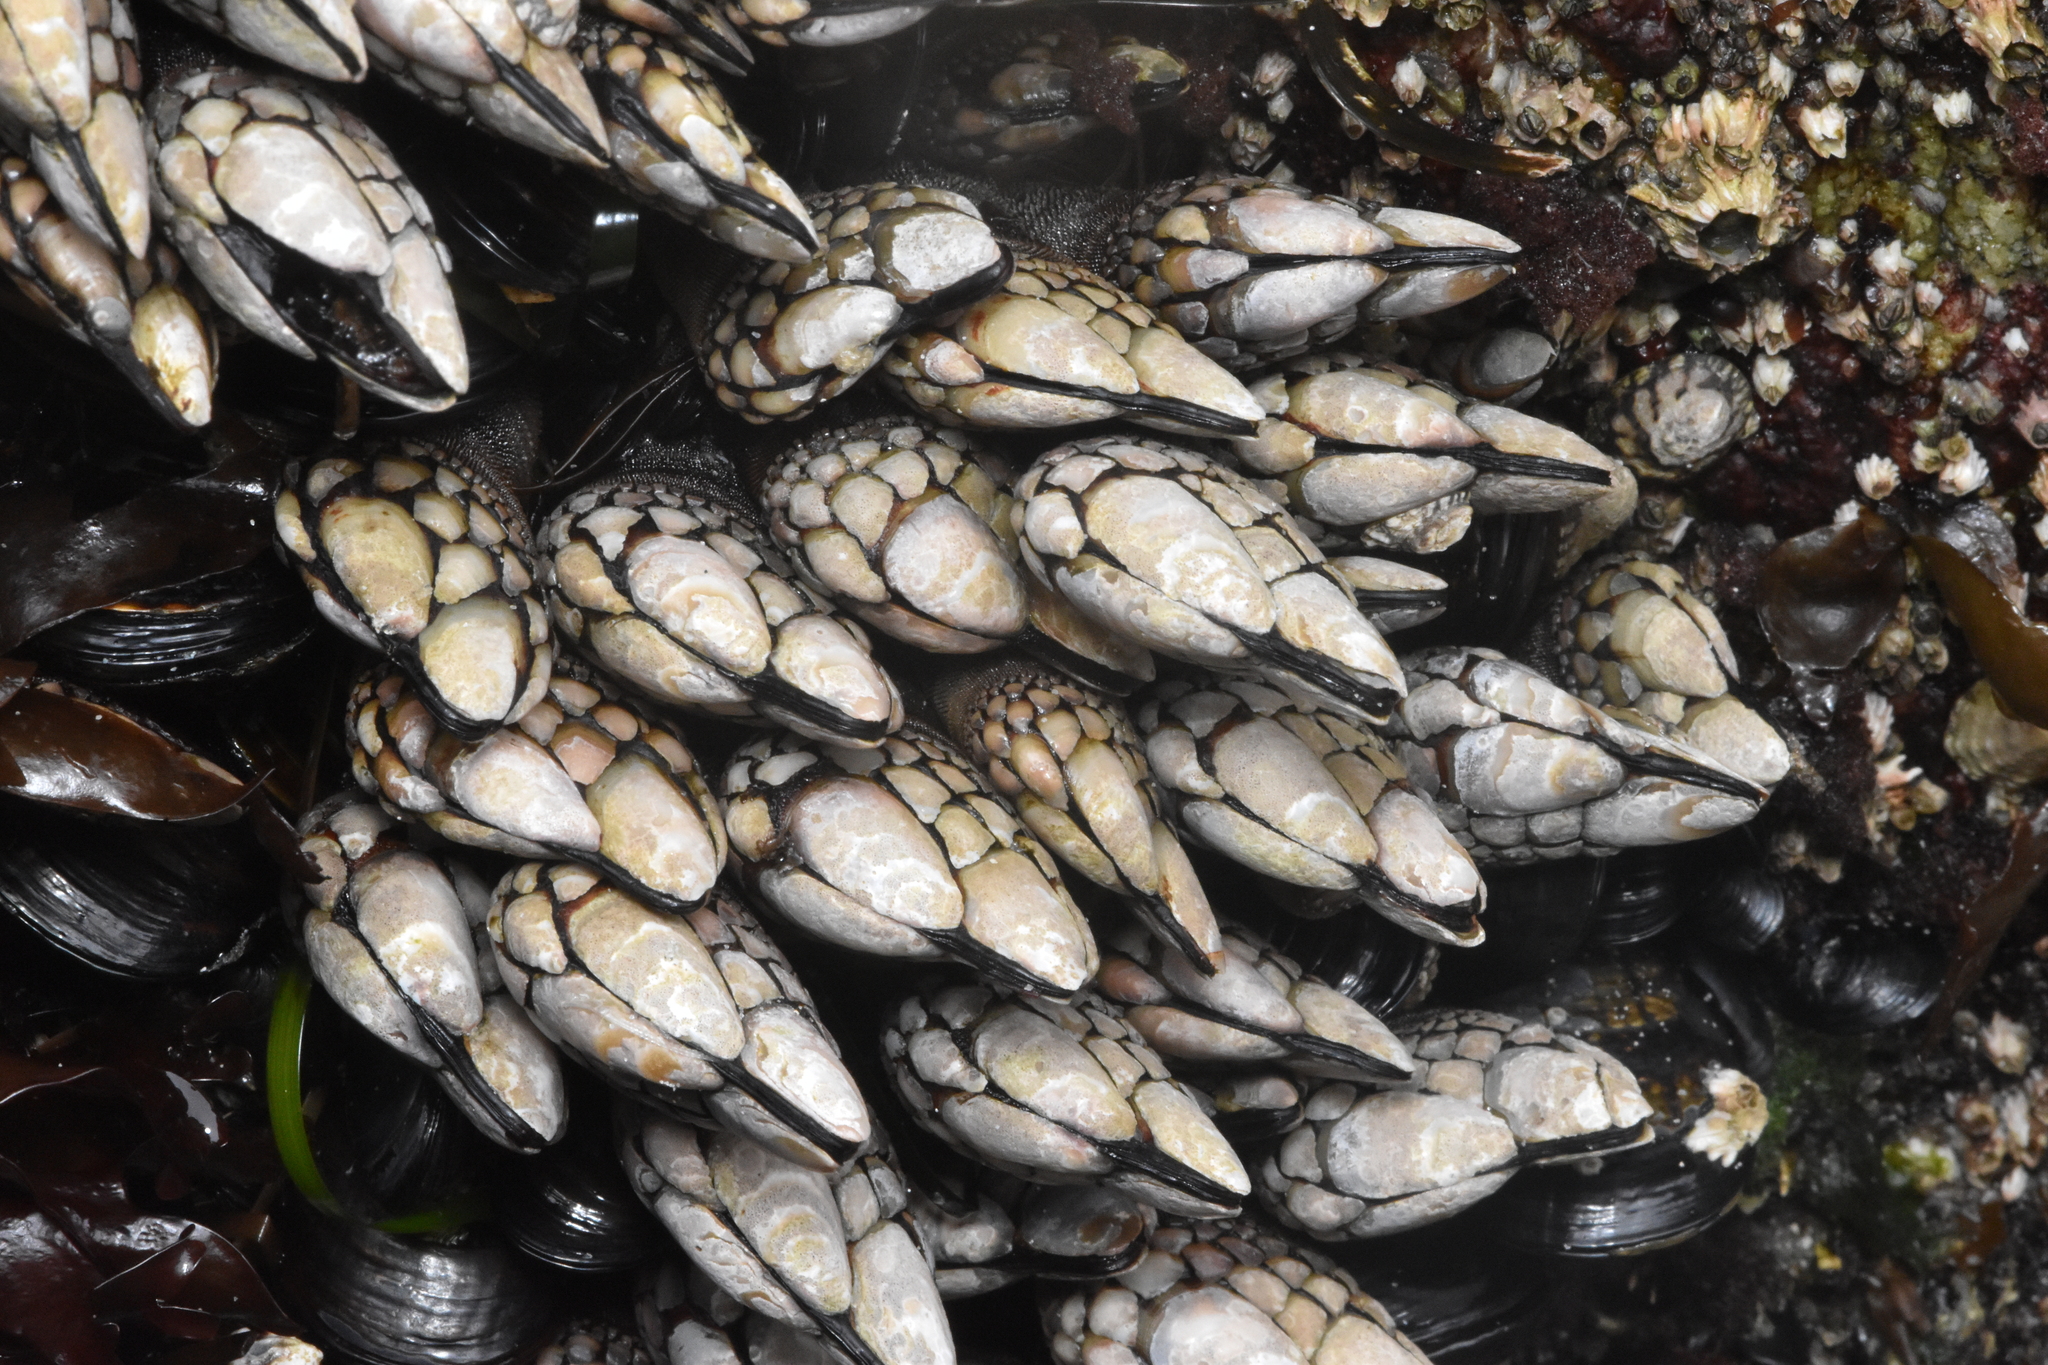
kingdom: Animalia
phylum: Arthropoda
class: Maxillopoda
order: Pedunculata
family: Pollicipedidae
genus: Pollicipes
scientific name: Pollicipes polymerus
